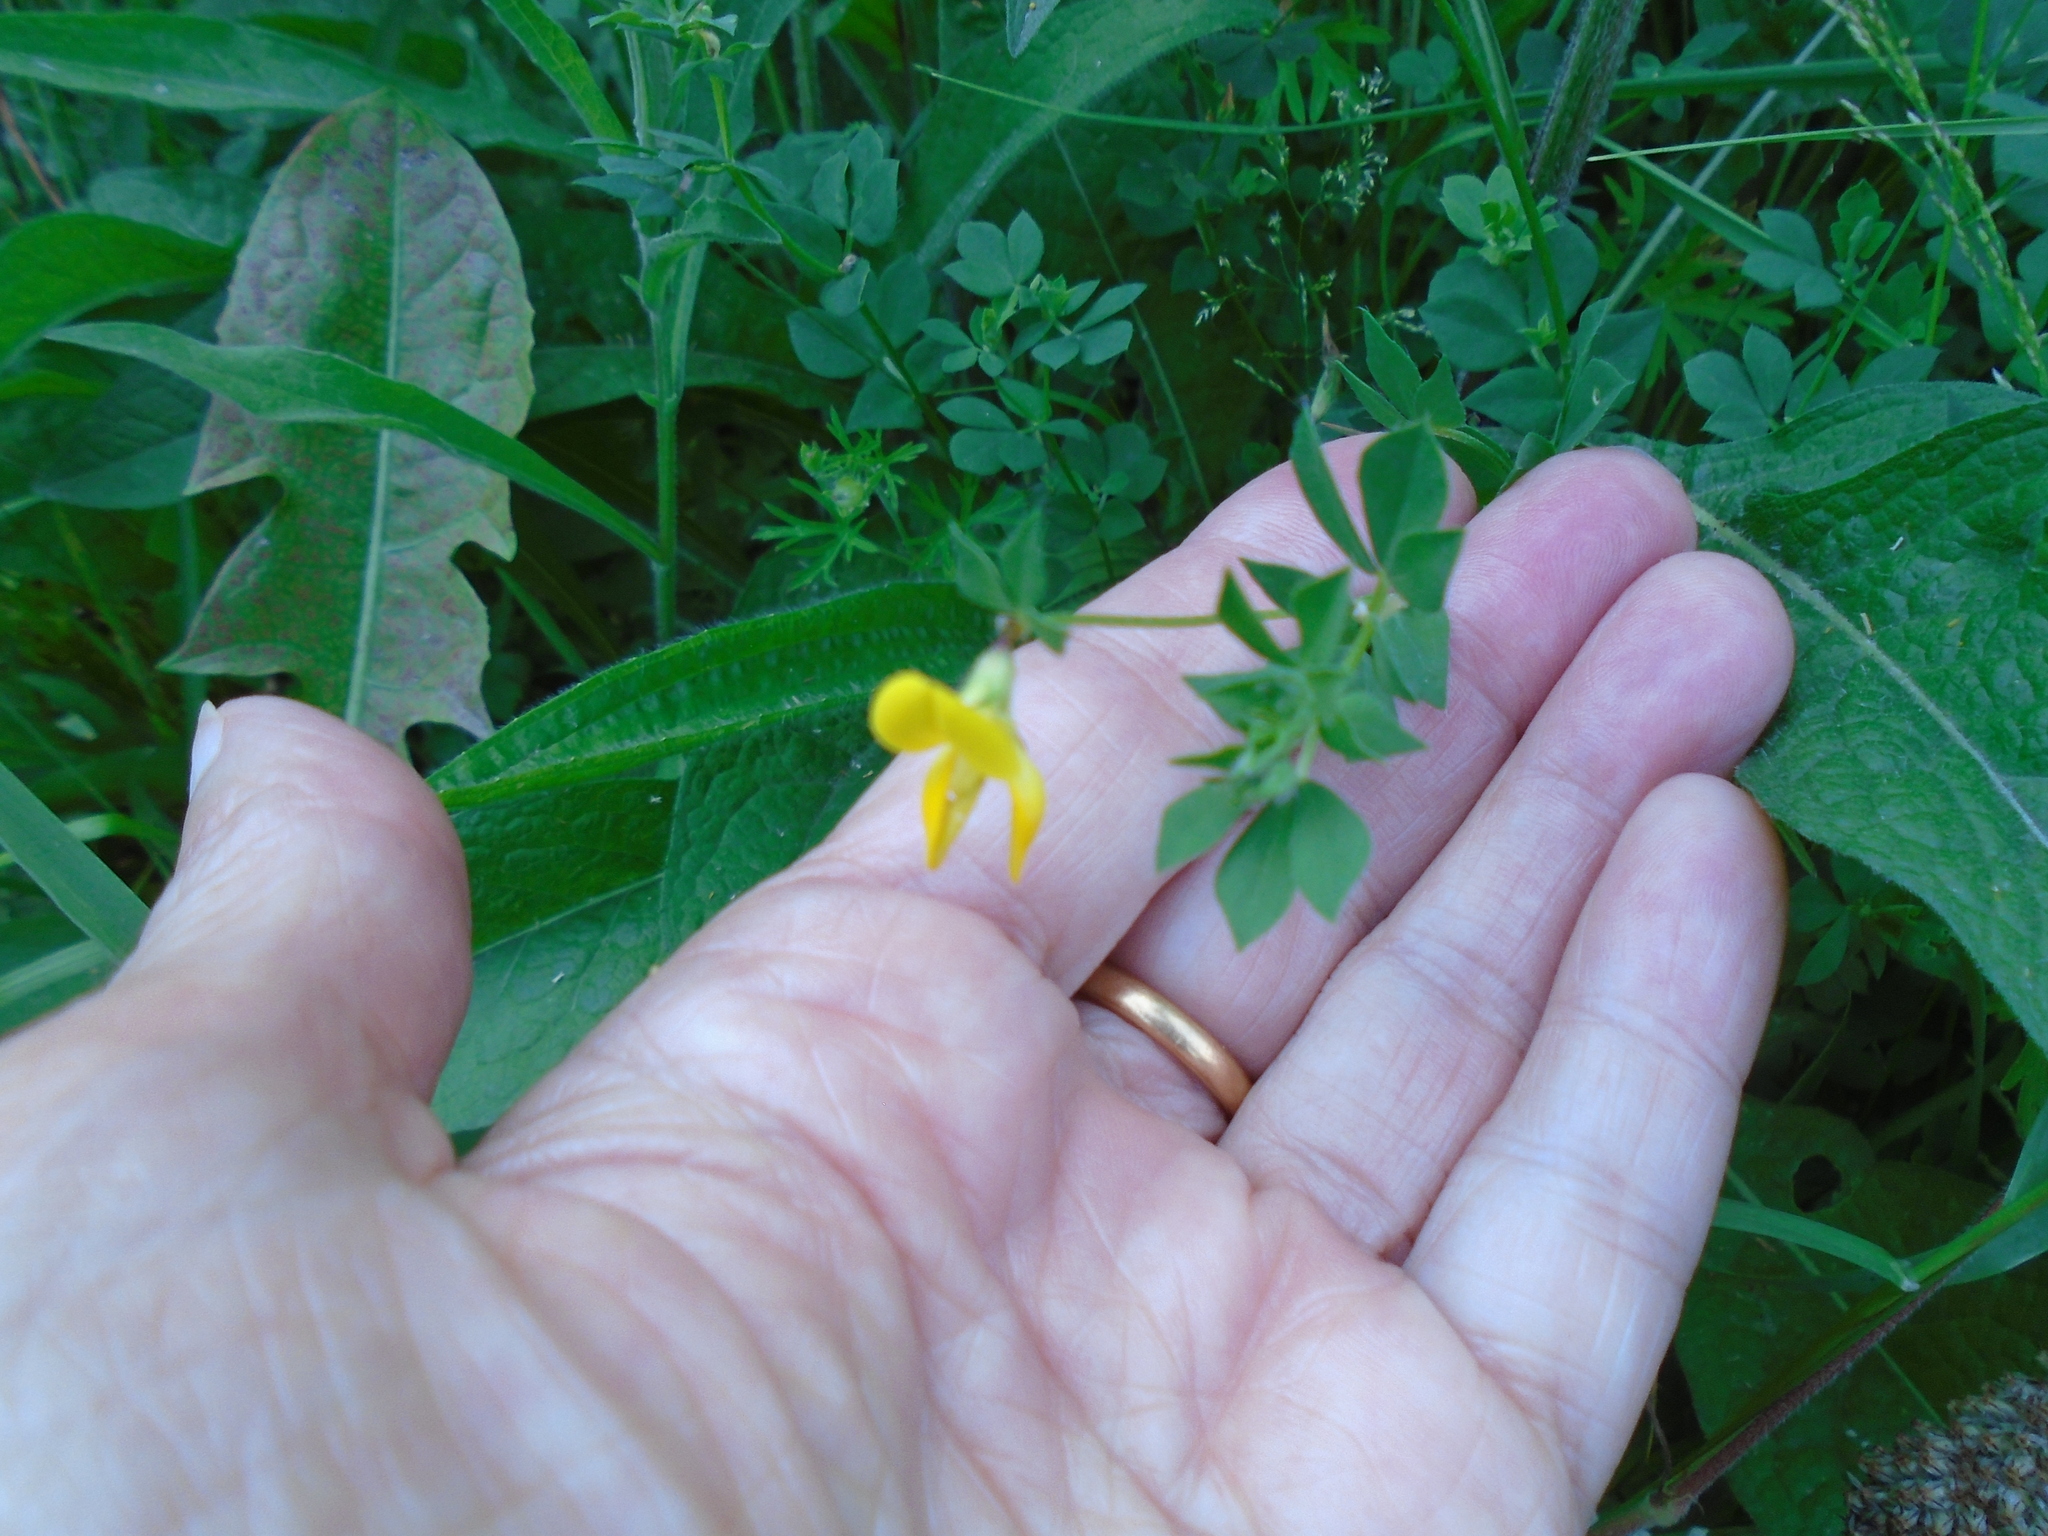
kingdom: Plantae
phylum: Tracheophyta
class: Magnoliopsida
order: Fabales
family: Fabaceae
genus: Lotus
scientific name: Lotus corniculatus
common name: Common bird's-foot-trefoil
